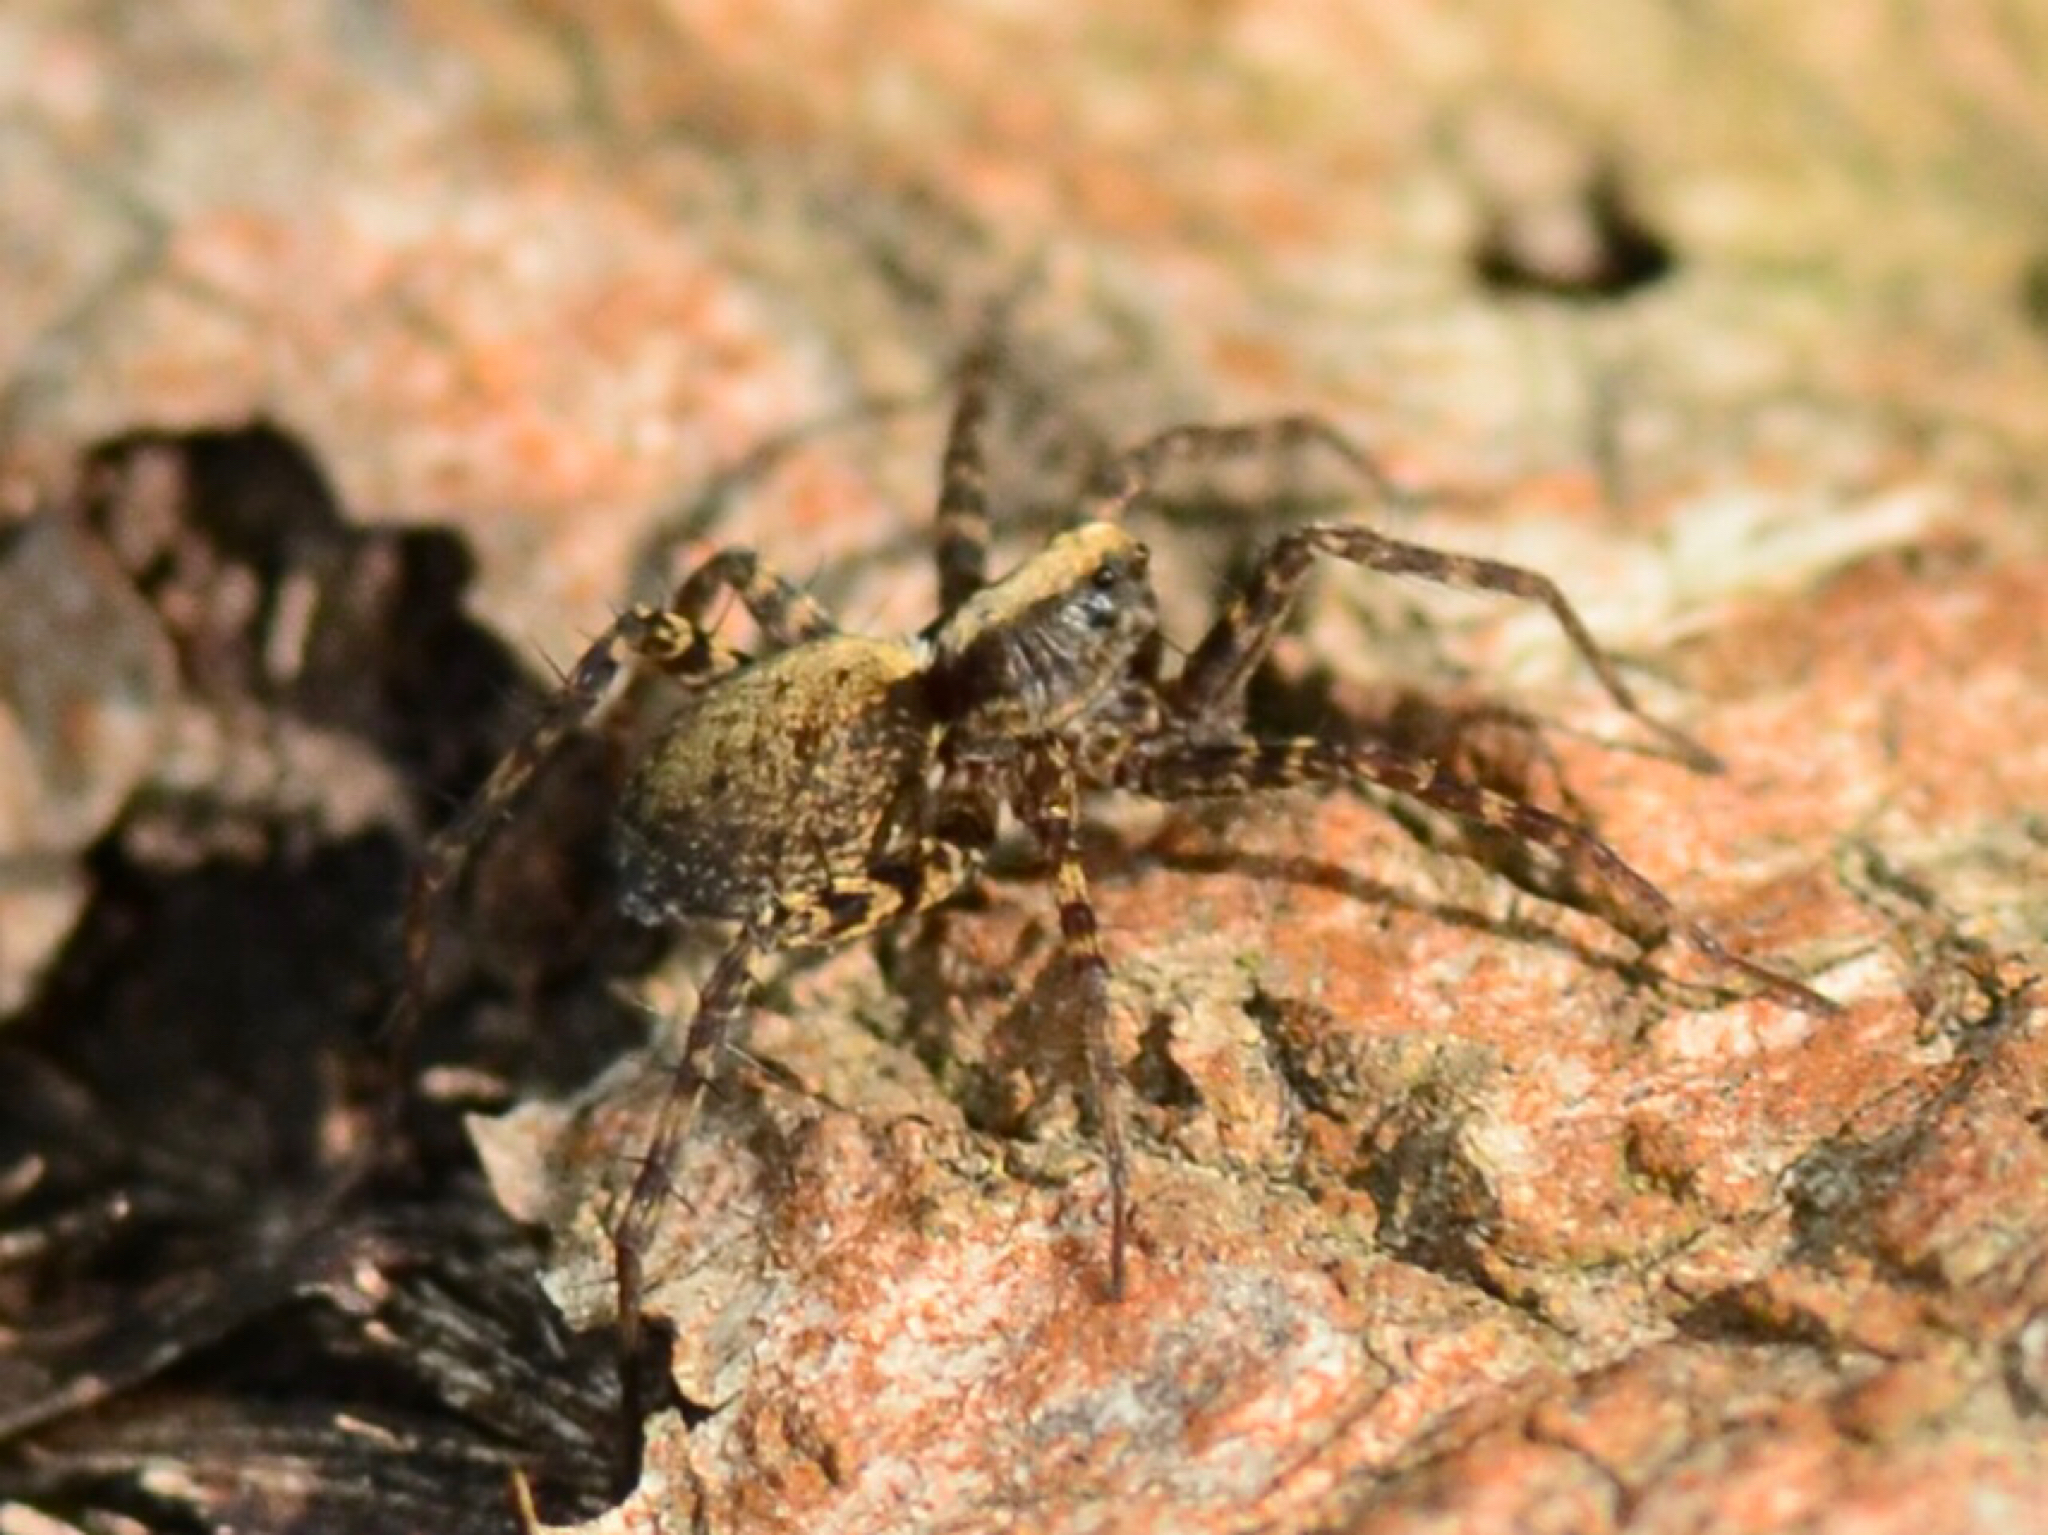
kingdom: Animalia
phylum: Arthropoda
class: Arachnida
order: Araneae
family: Lycosidae
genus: Pardosa
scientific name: Pardosa
